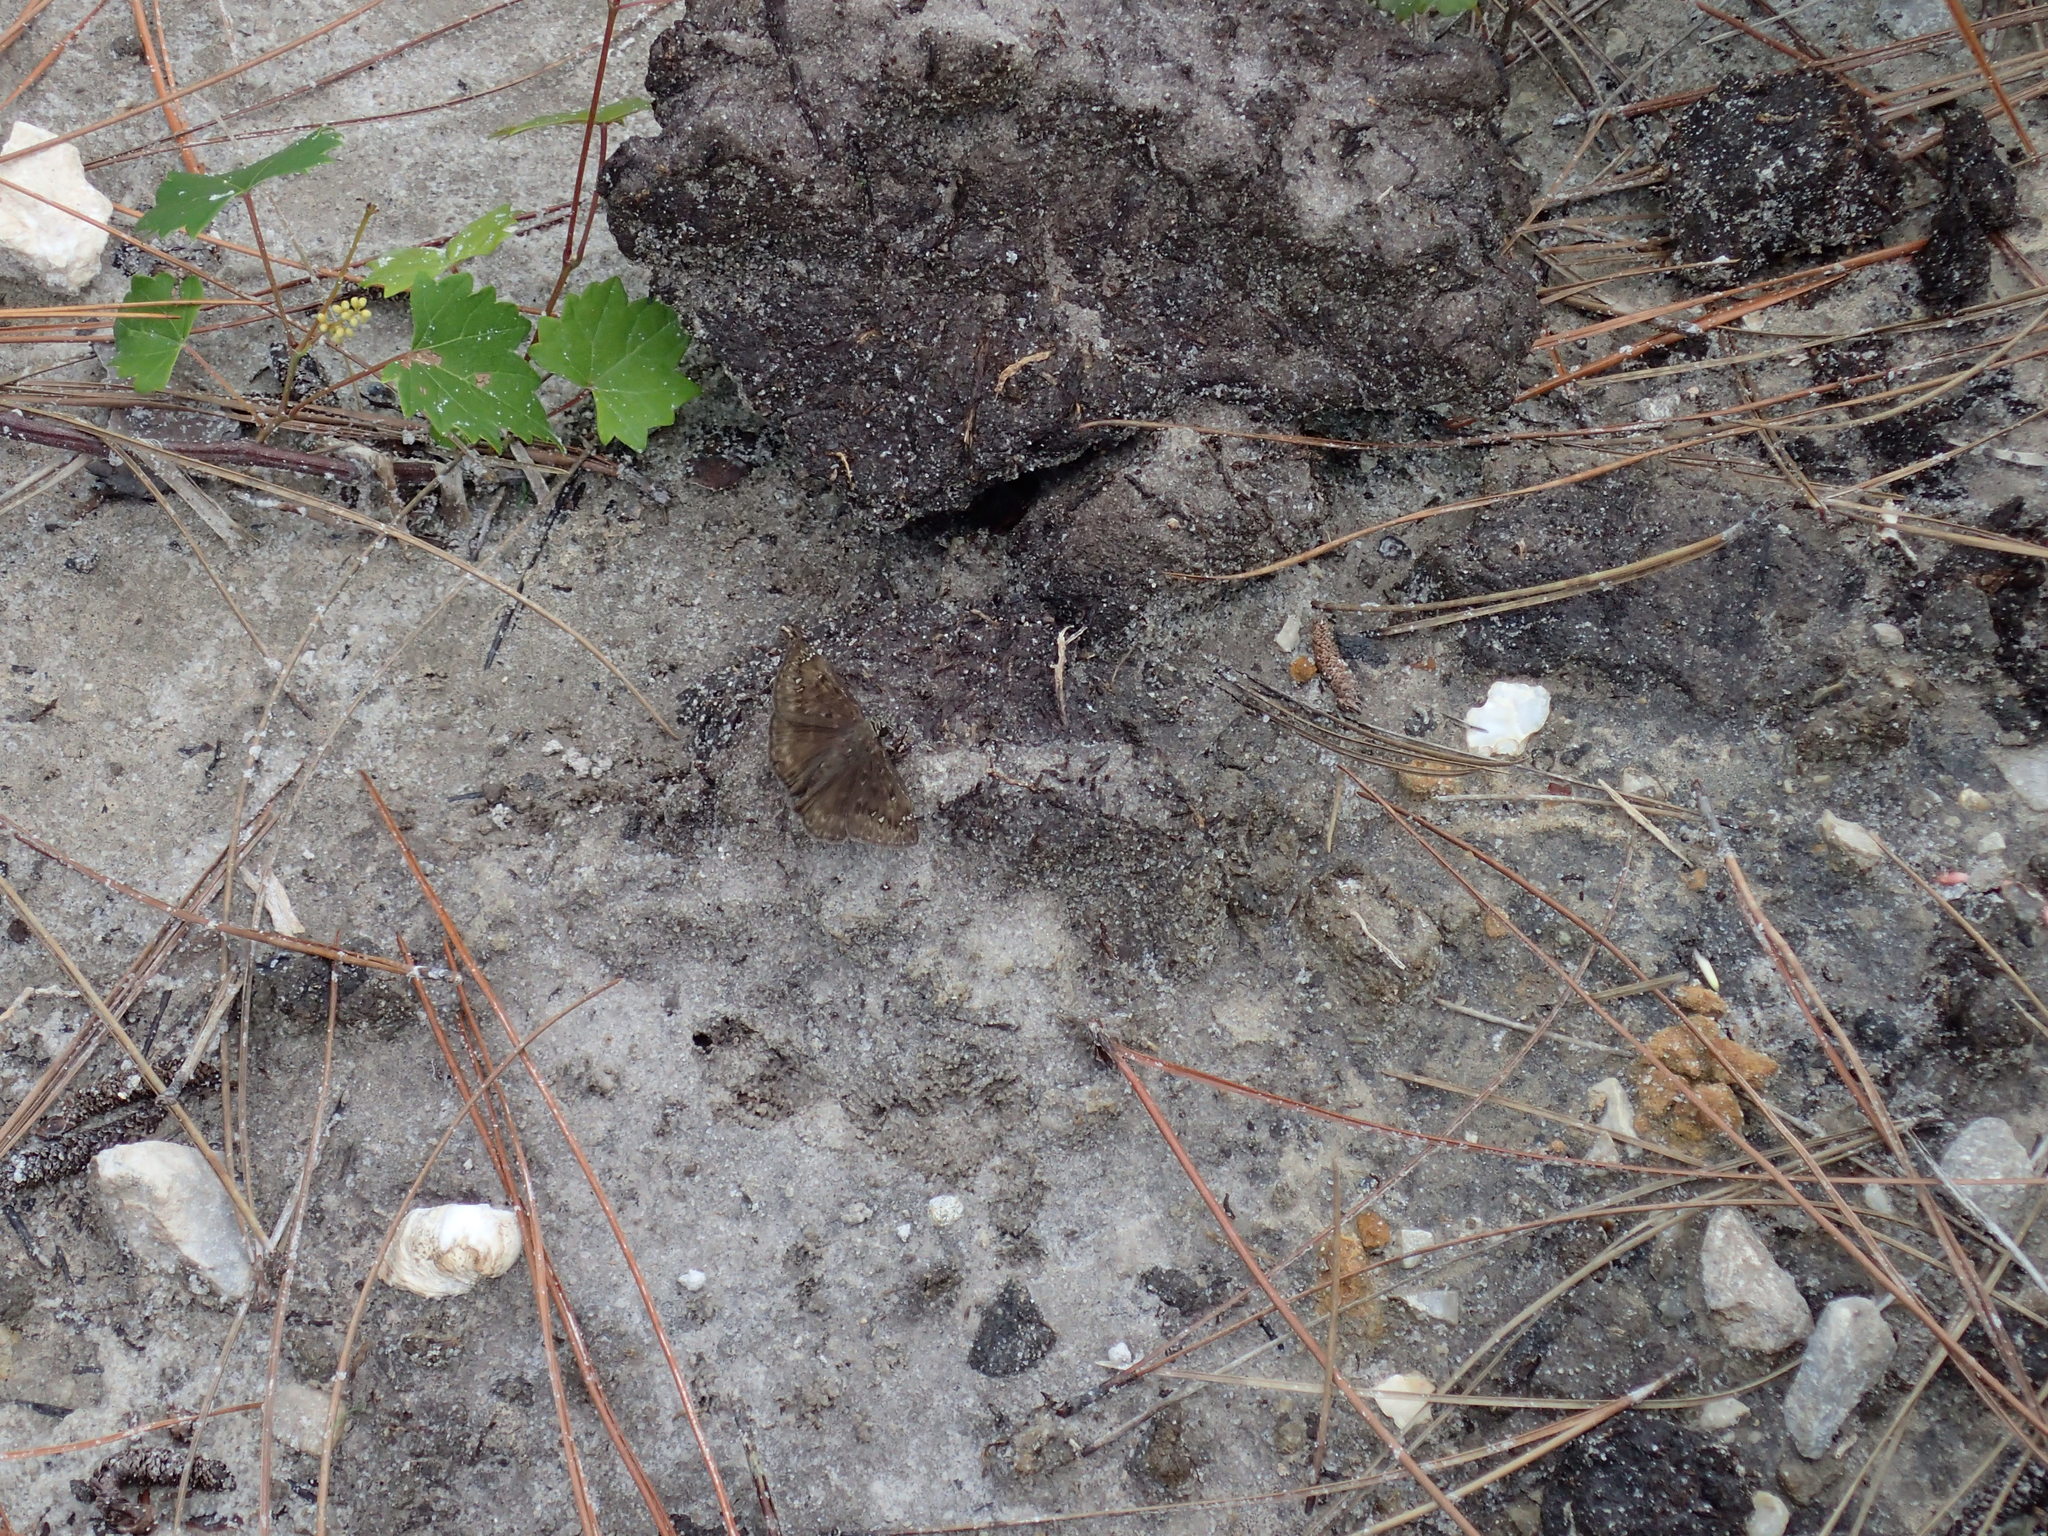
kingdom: Animalia
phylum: Arthropoda
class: Insecta
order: Lepidoptera
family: Hesperiidae
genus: Erynnis
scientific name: Erynnis horatius
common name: Horace's duskywing
